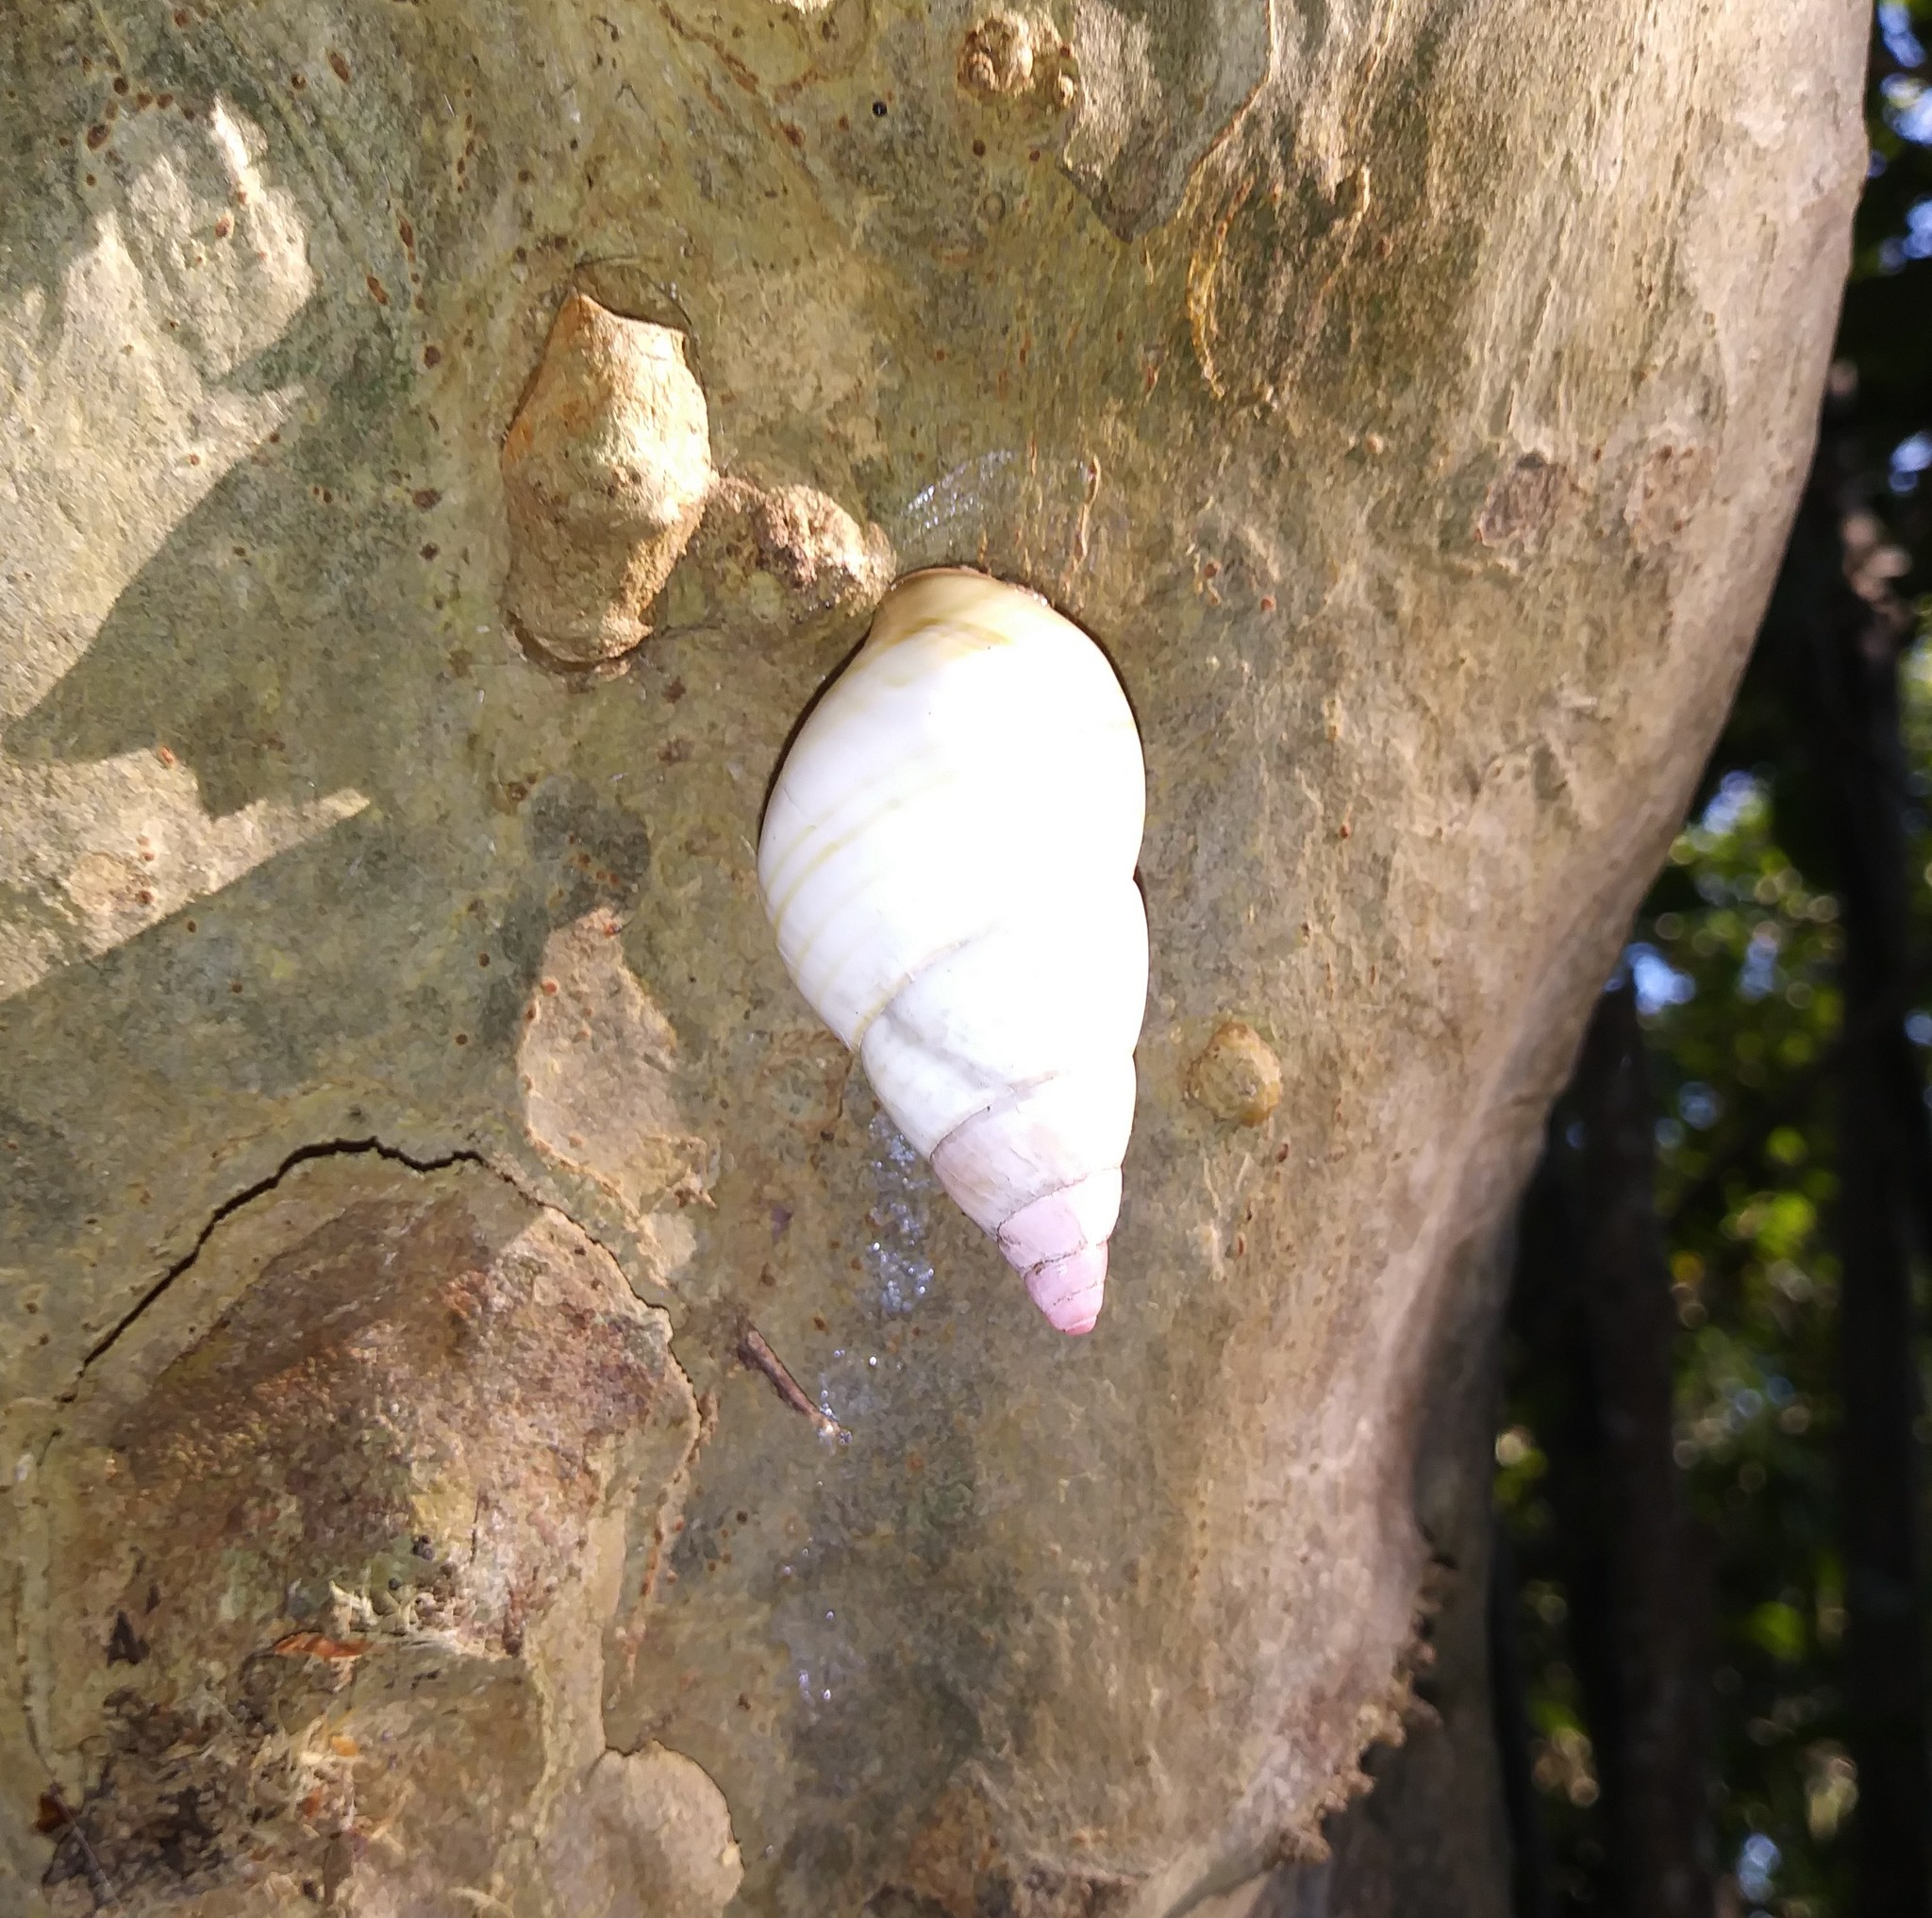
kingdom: Animalia
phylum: Mollusca
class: Gastropoda
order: Stylommatophora
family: Orthalicidae
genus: Liguus
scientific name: Liguus fasciatus
